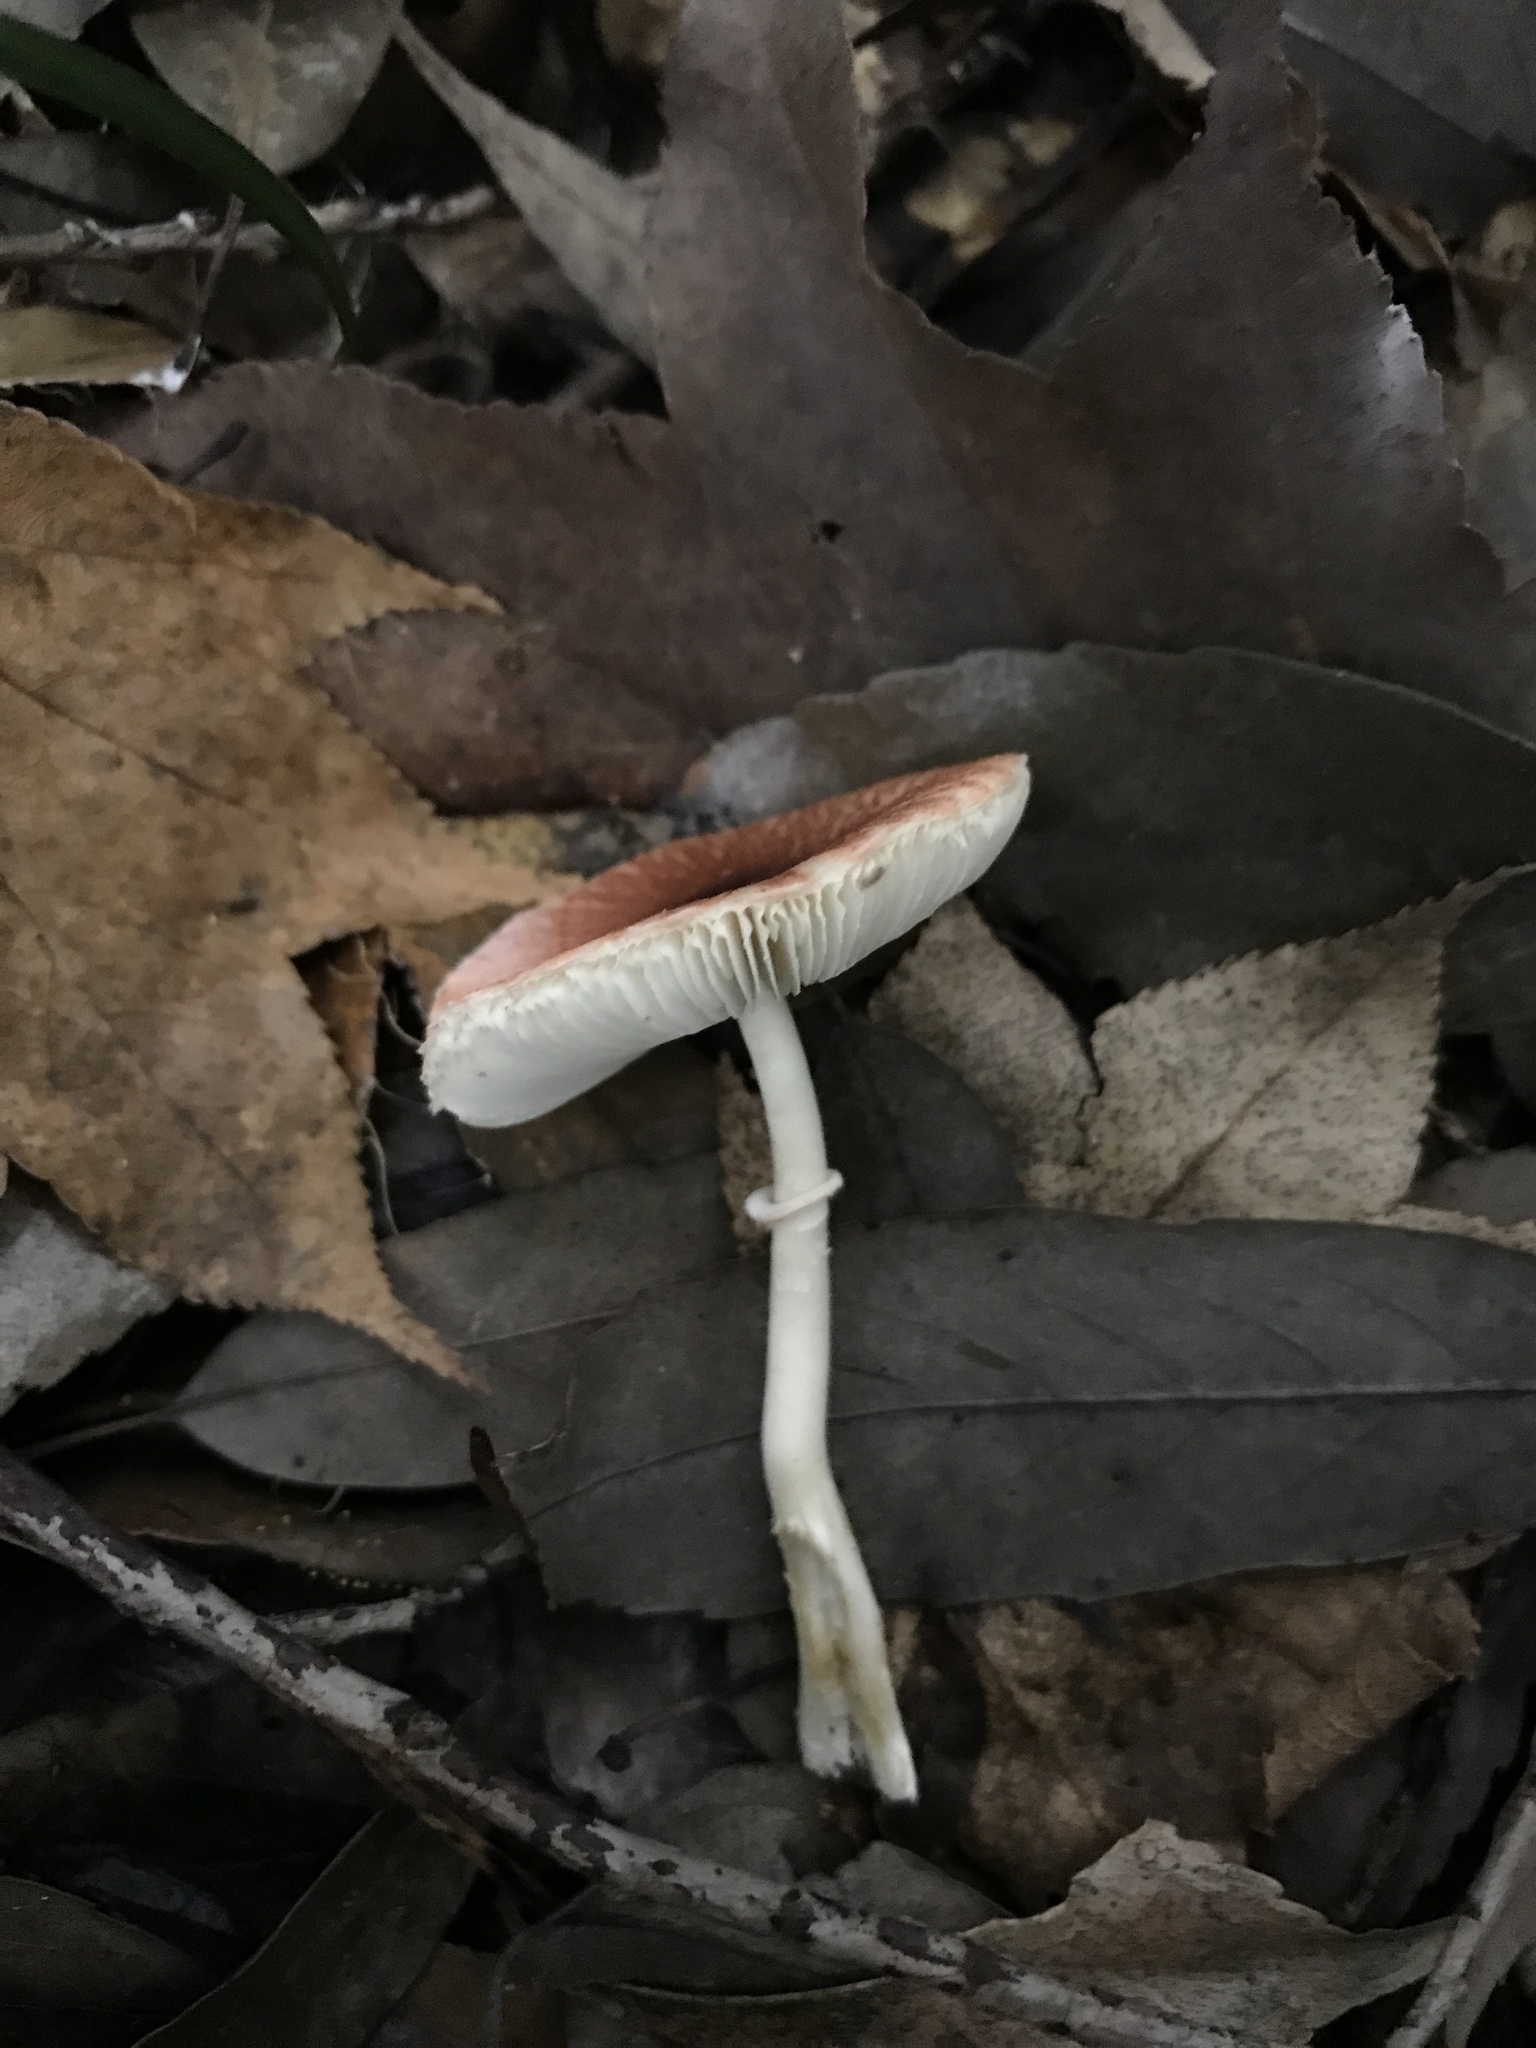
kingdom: Fungi
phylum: Basidiomycota
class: Agaricomycetes
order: Agaricales
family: Agaricaceae
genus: Leucoagaricus
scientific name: Leucoagaricus rubrotinctus
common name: Ruby dapperling
